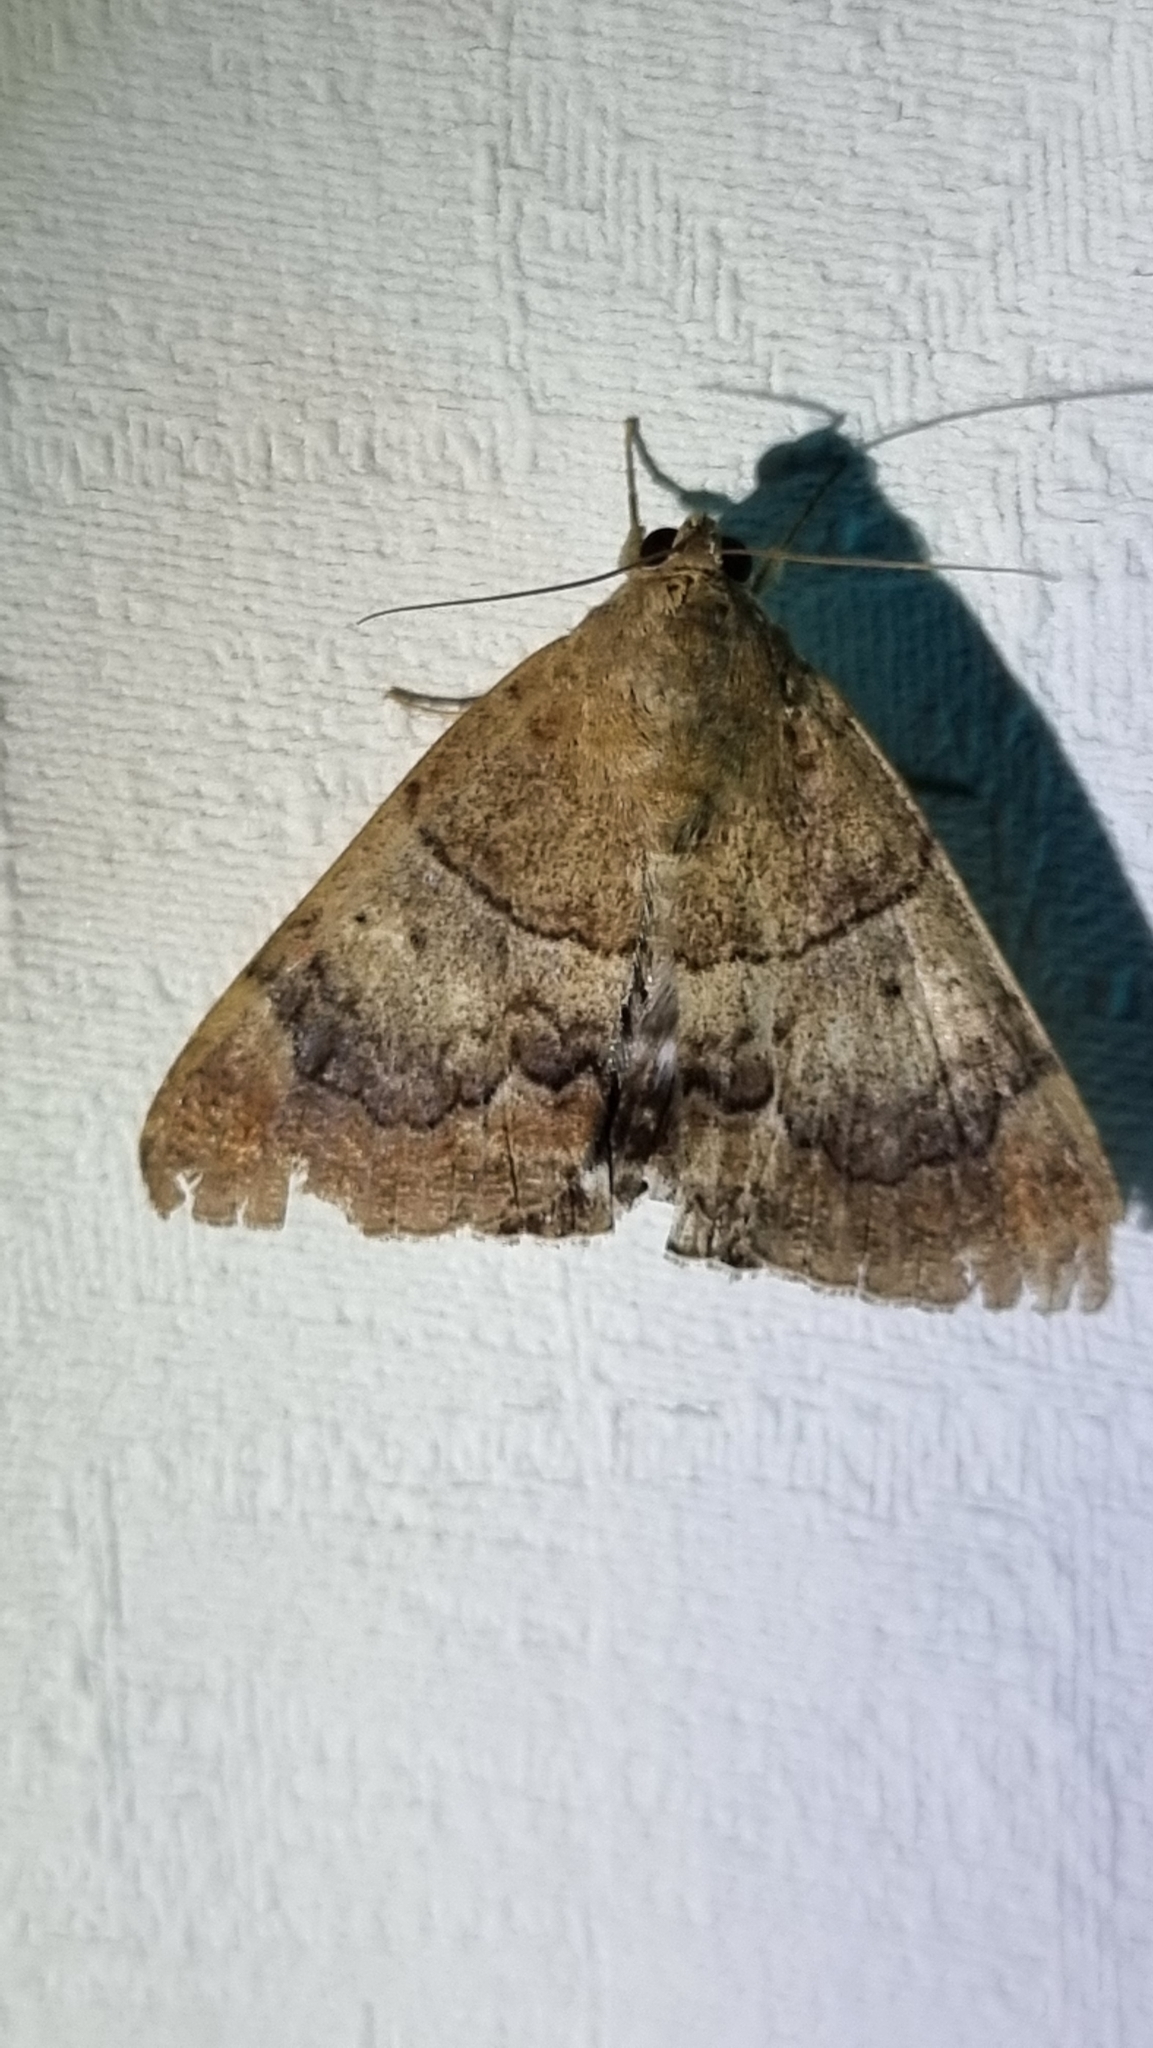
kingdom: Animalia
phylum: Arthropoda
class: Insecta
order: Lepidoptera
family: Erebidae
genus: Achaea
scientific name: Achaea janata
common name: Croton caterpillar
